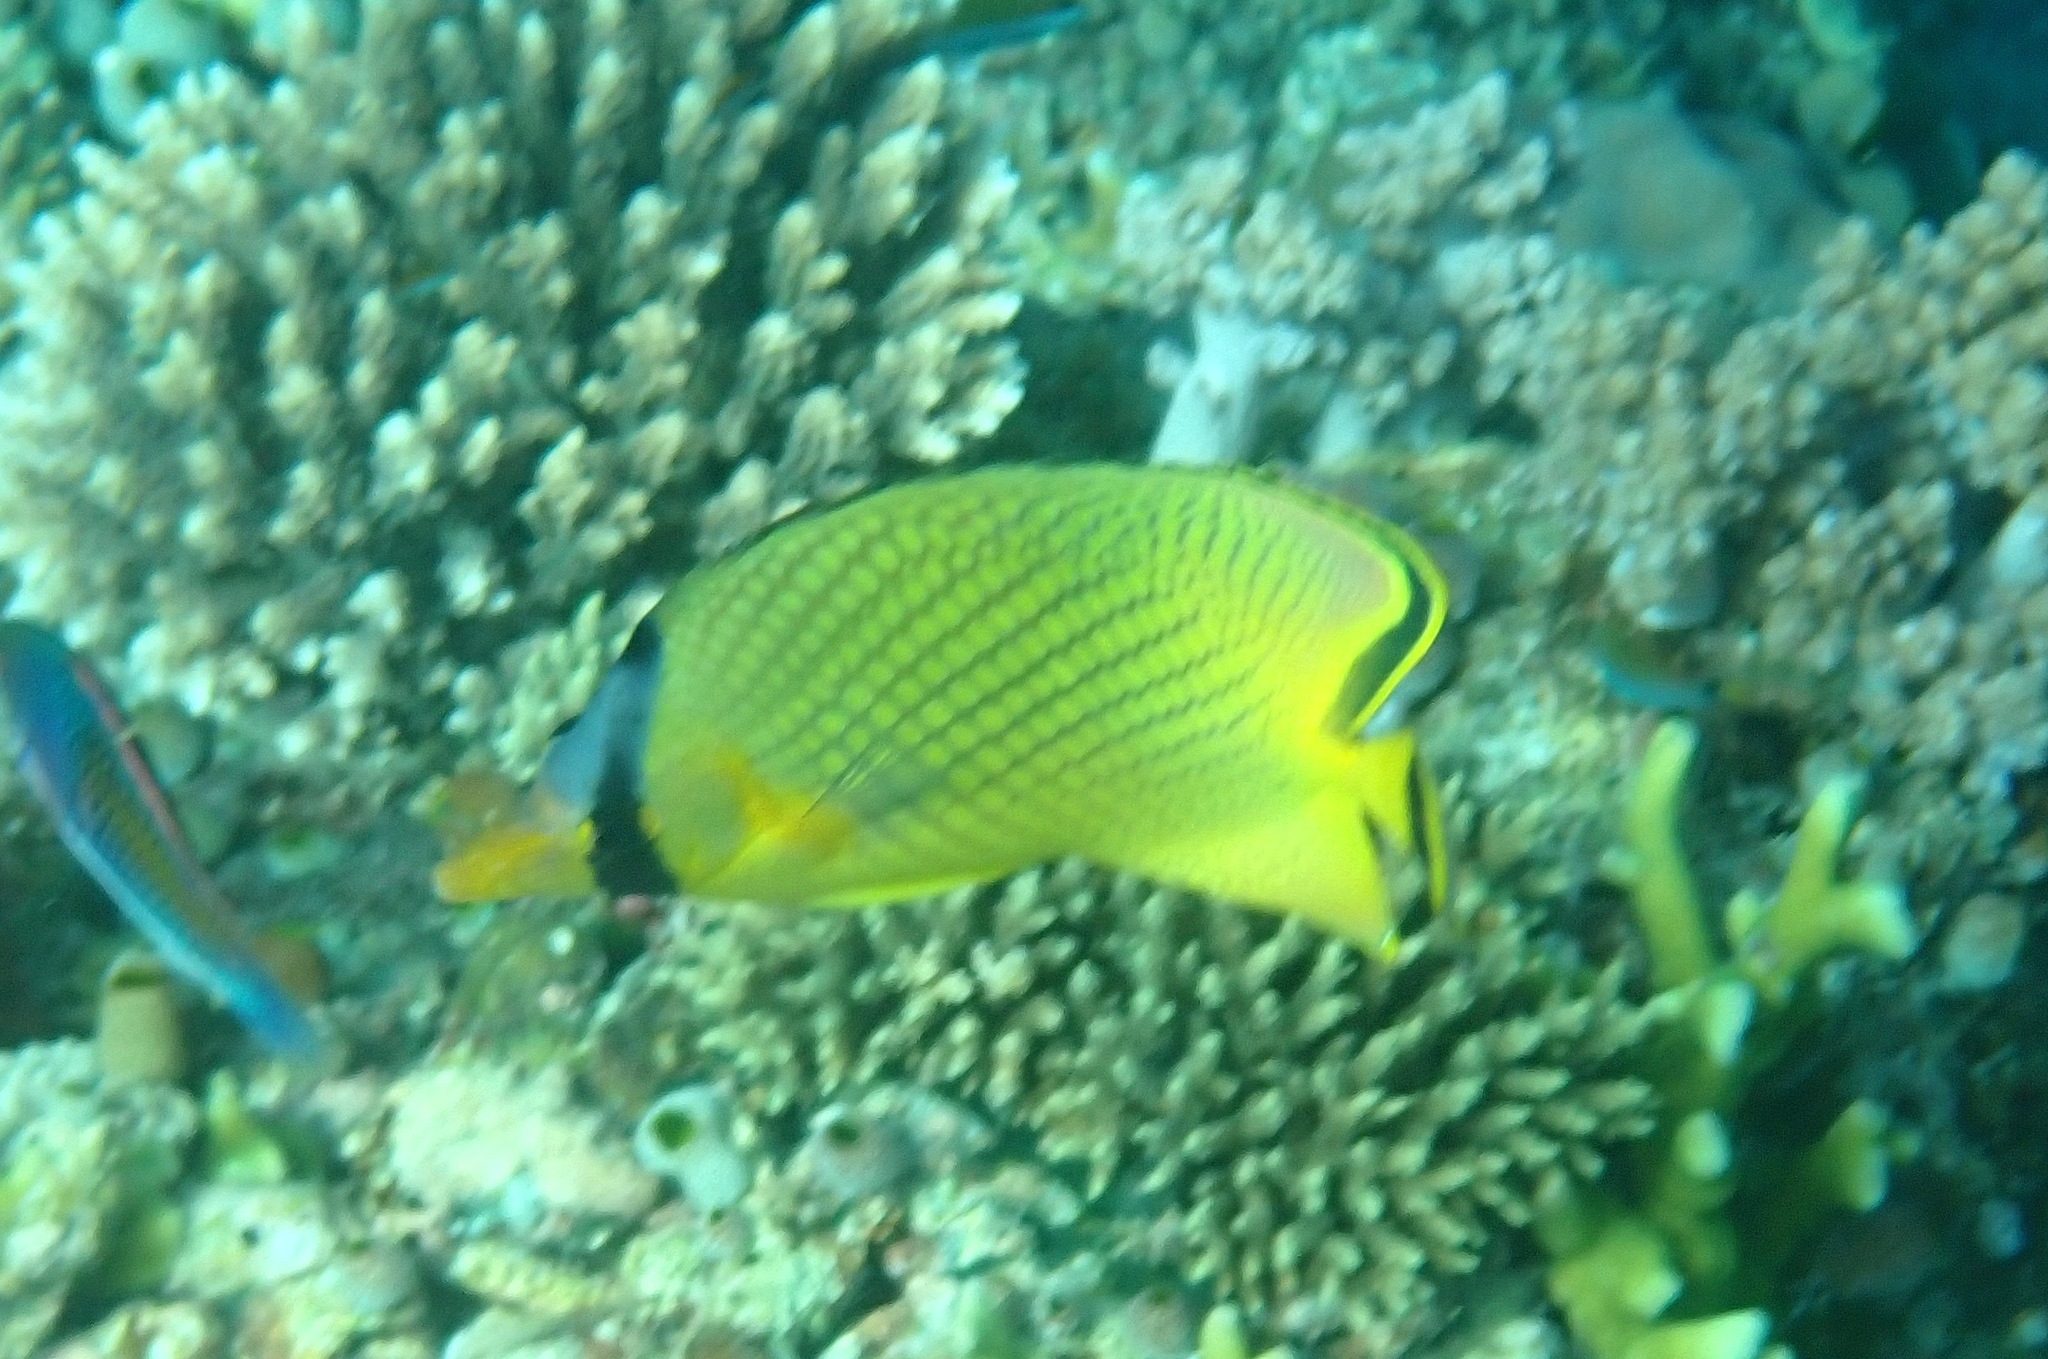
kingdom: Animalia
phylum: Chordata
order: Perciformes
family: Chaetodontidae
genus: Chaetodon
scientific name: Chaetodon rafflesii
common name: Latticed butterflyfish
